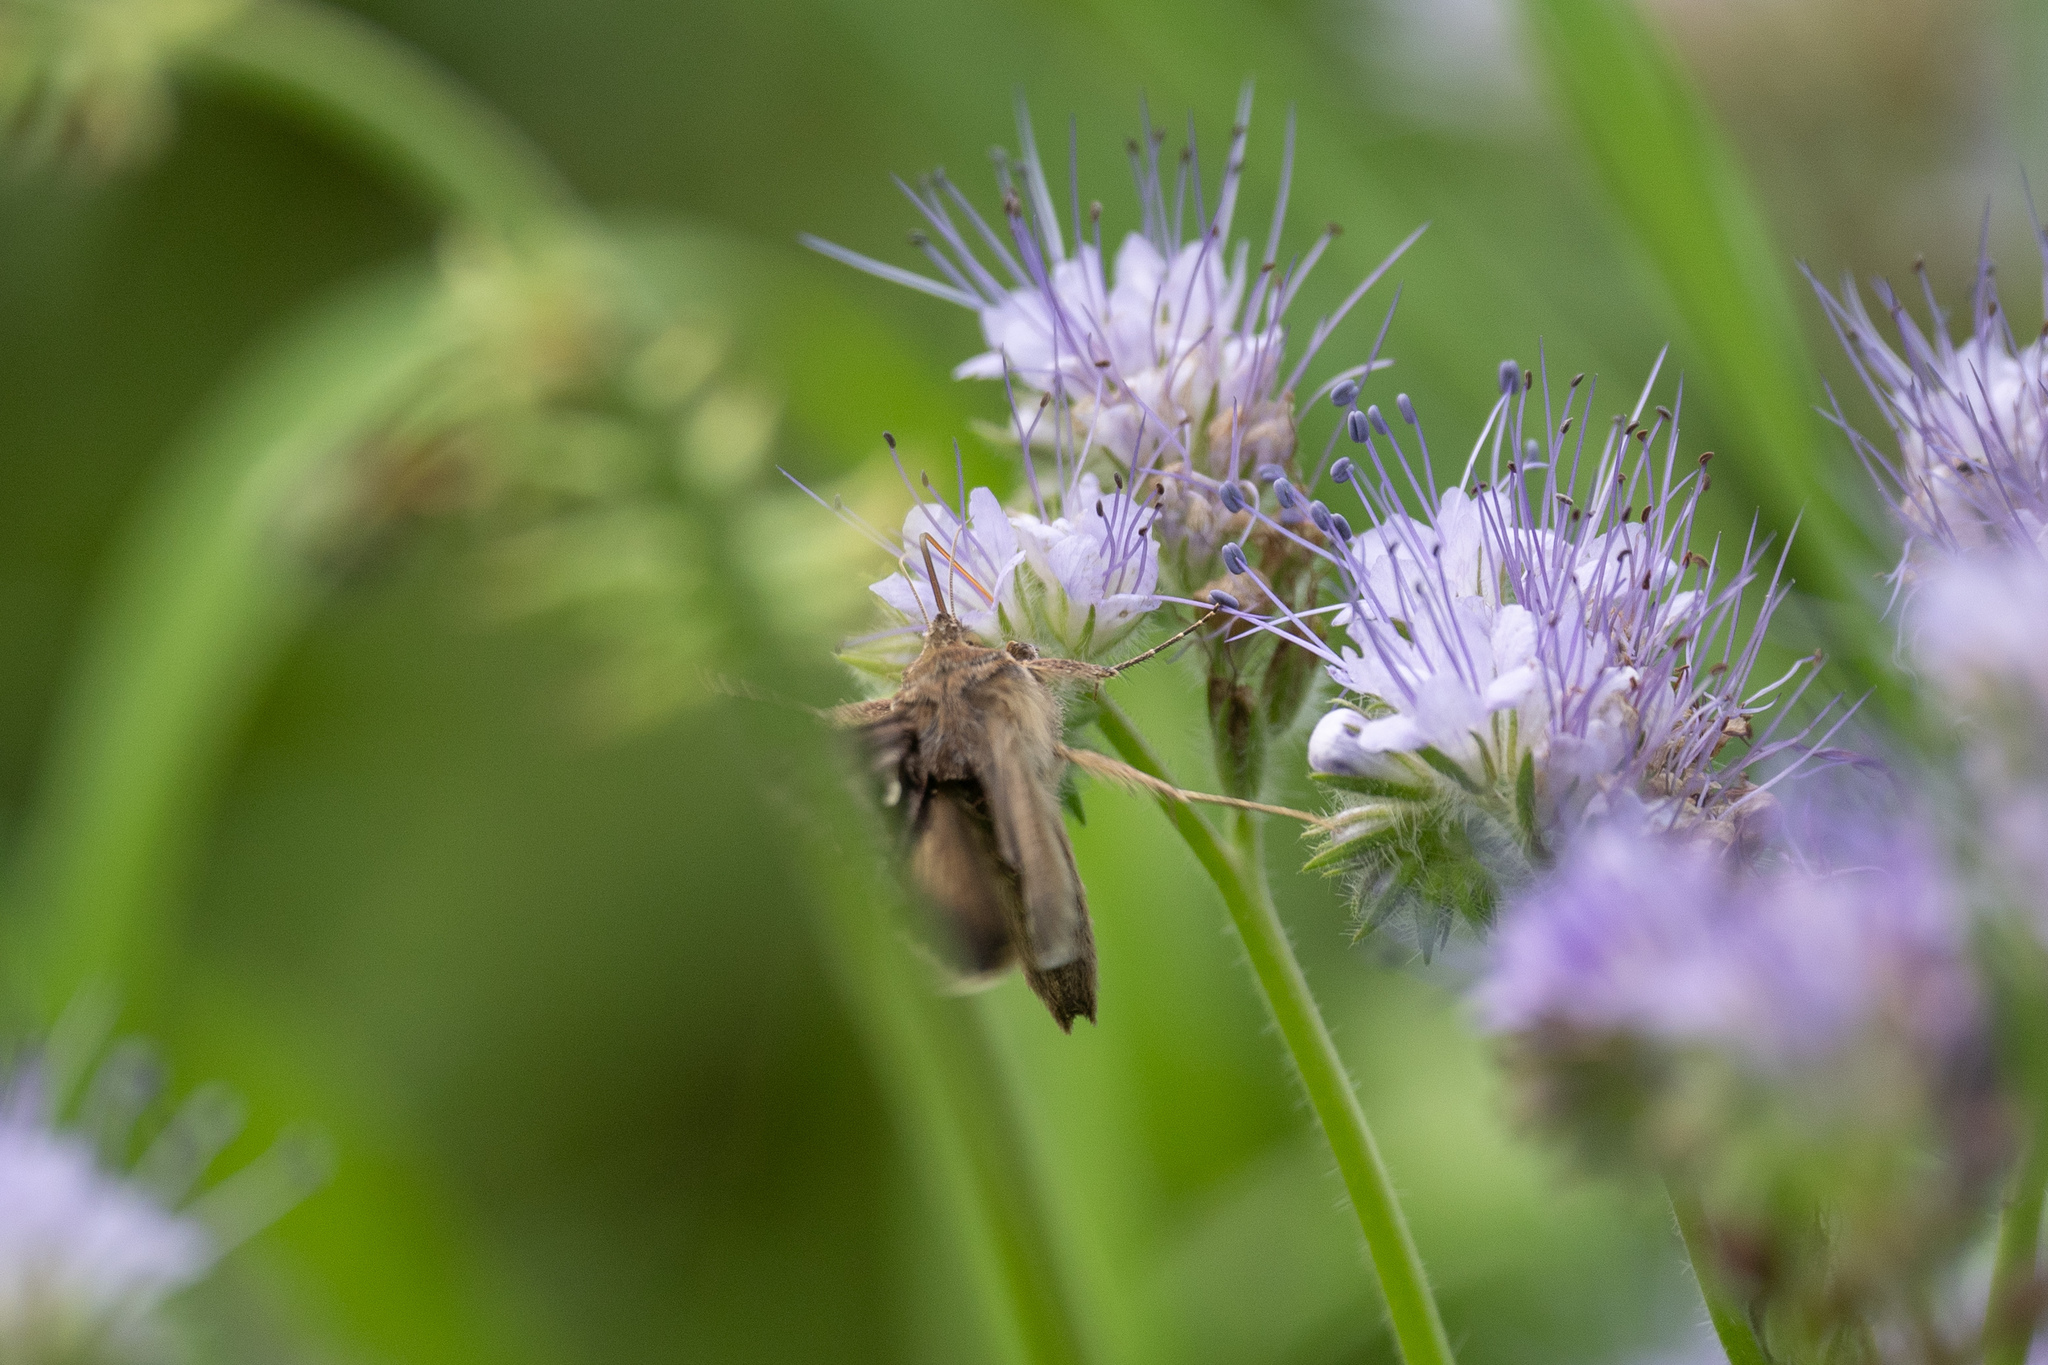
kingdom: Animalia
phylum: Arthropoda
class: Insecta
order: Lepidoptera
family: Noctuidae
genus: Autographa
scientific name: Autographa gamma
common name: Silver y
